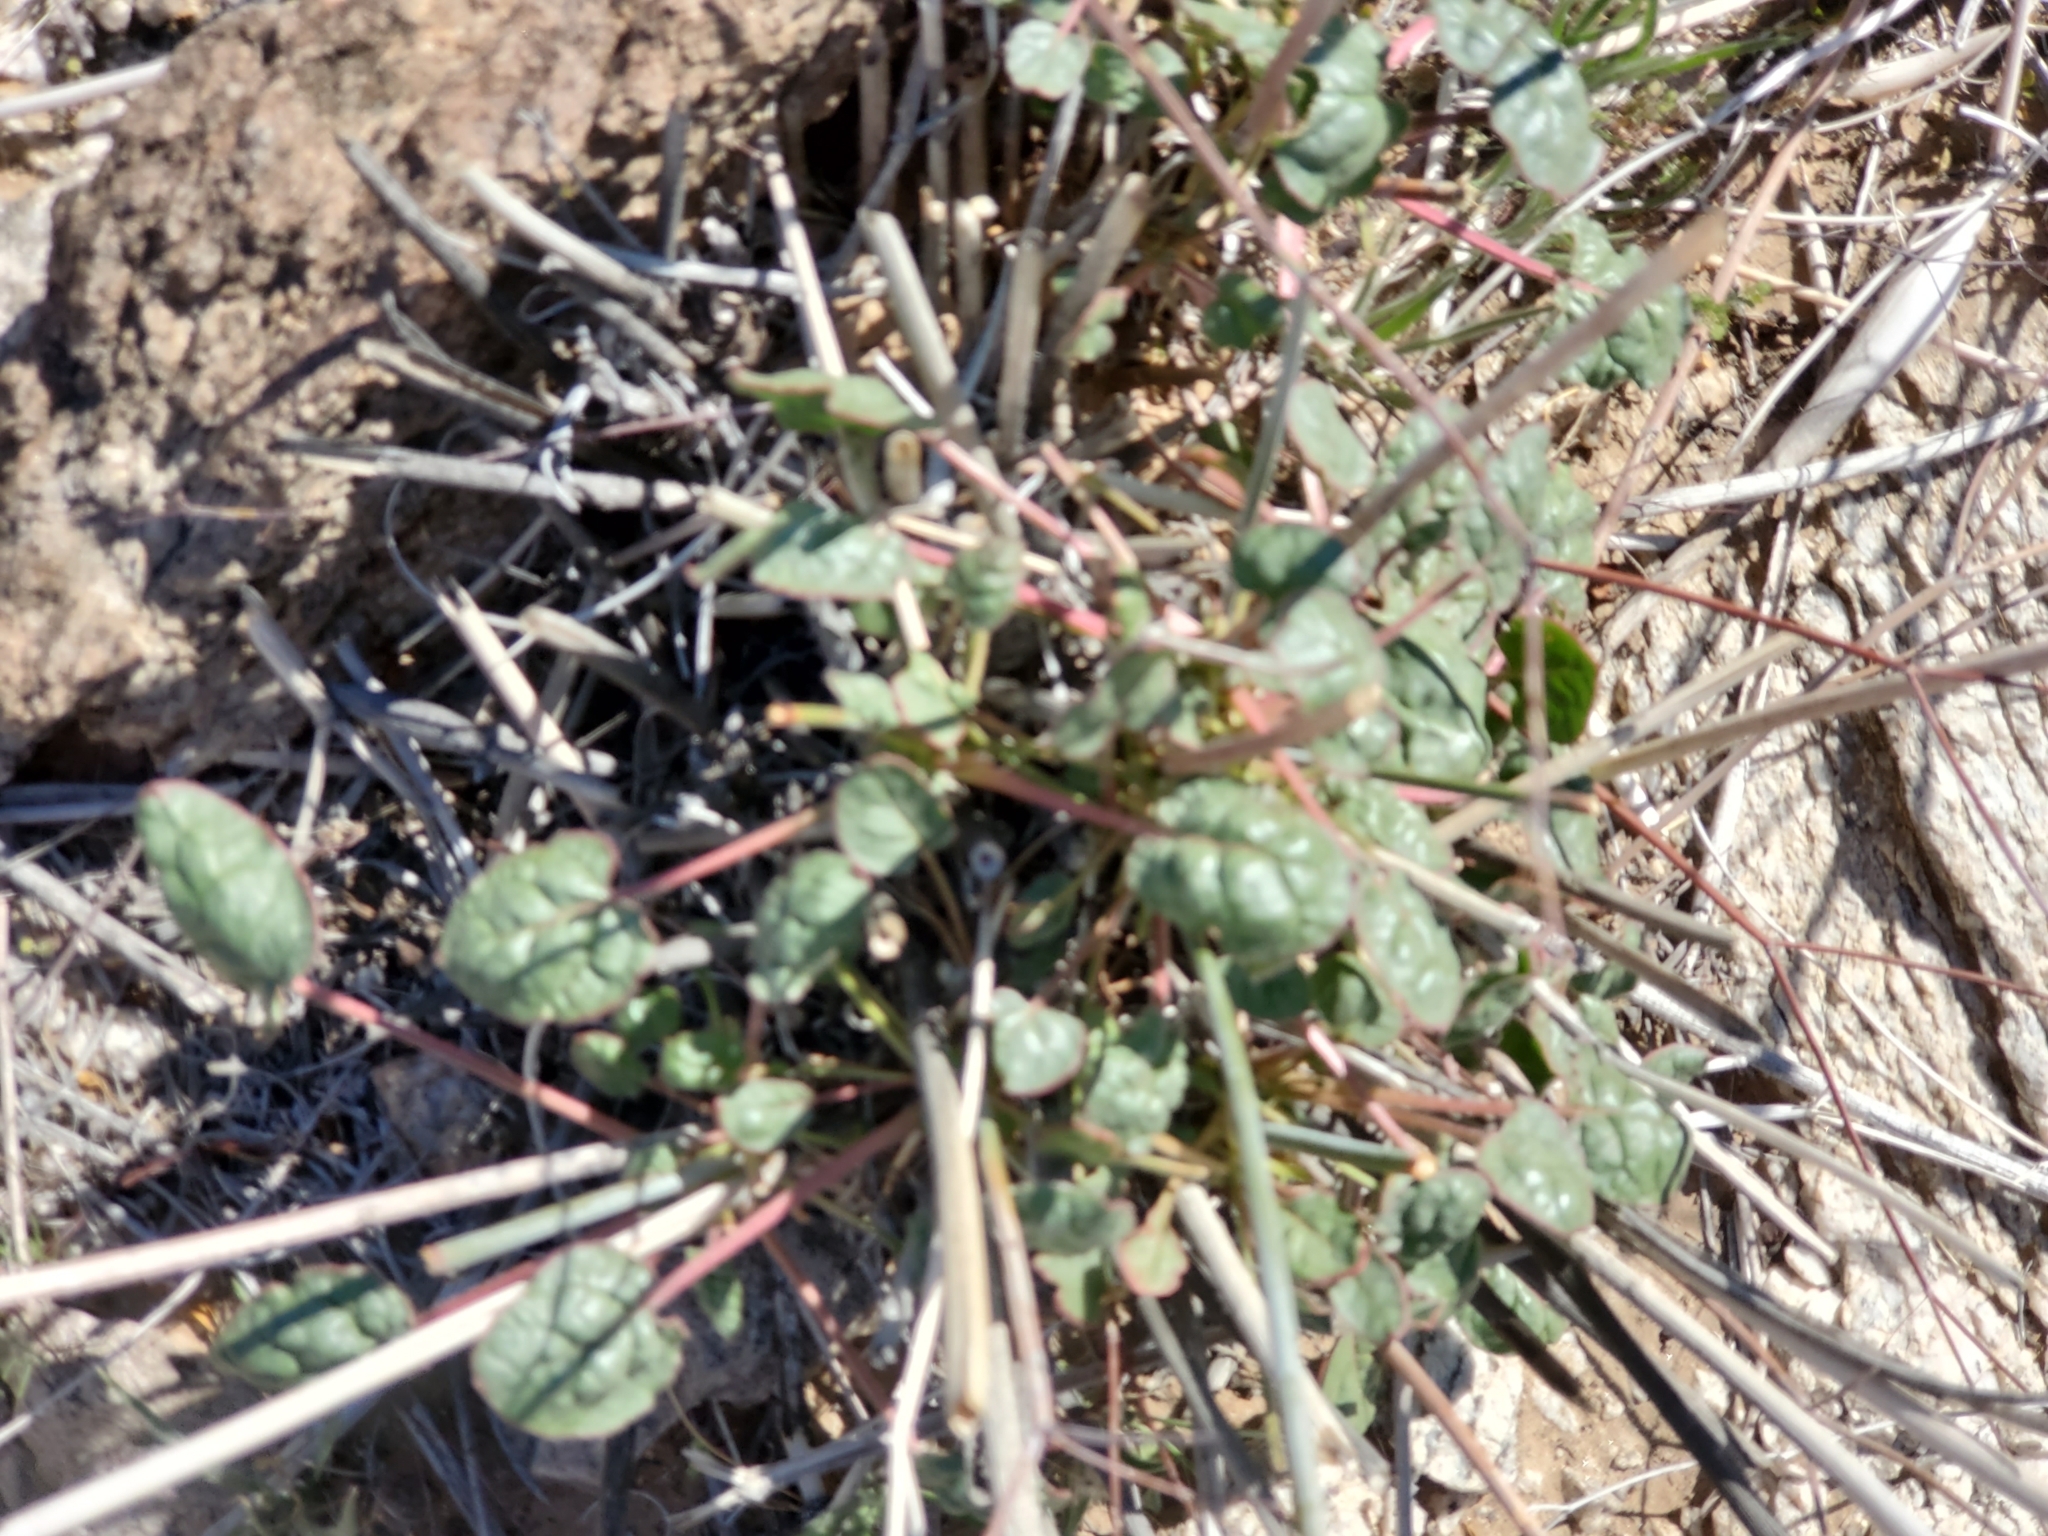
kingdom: Plantae
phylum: Tracheophyta
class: Magnoliopsida
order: Caryophyllales
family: Polygonaceae
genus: Eriogonum
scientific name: Eriogonum inflatum
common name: Desert trumpet
